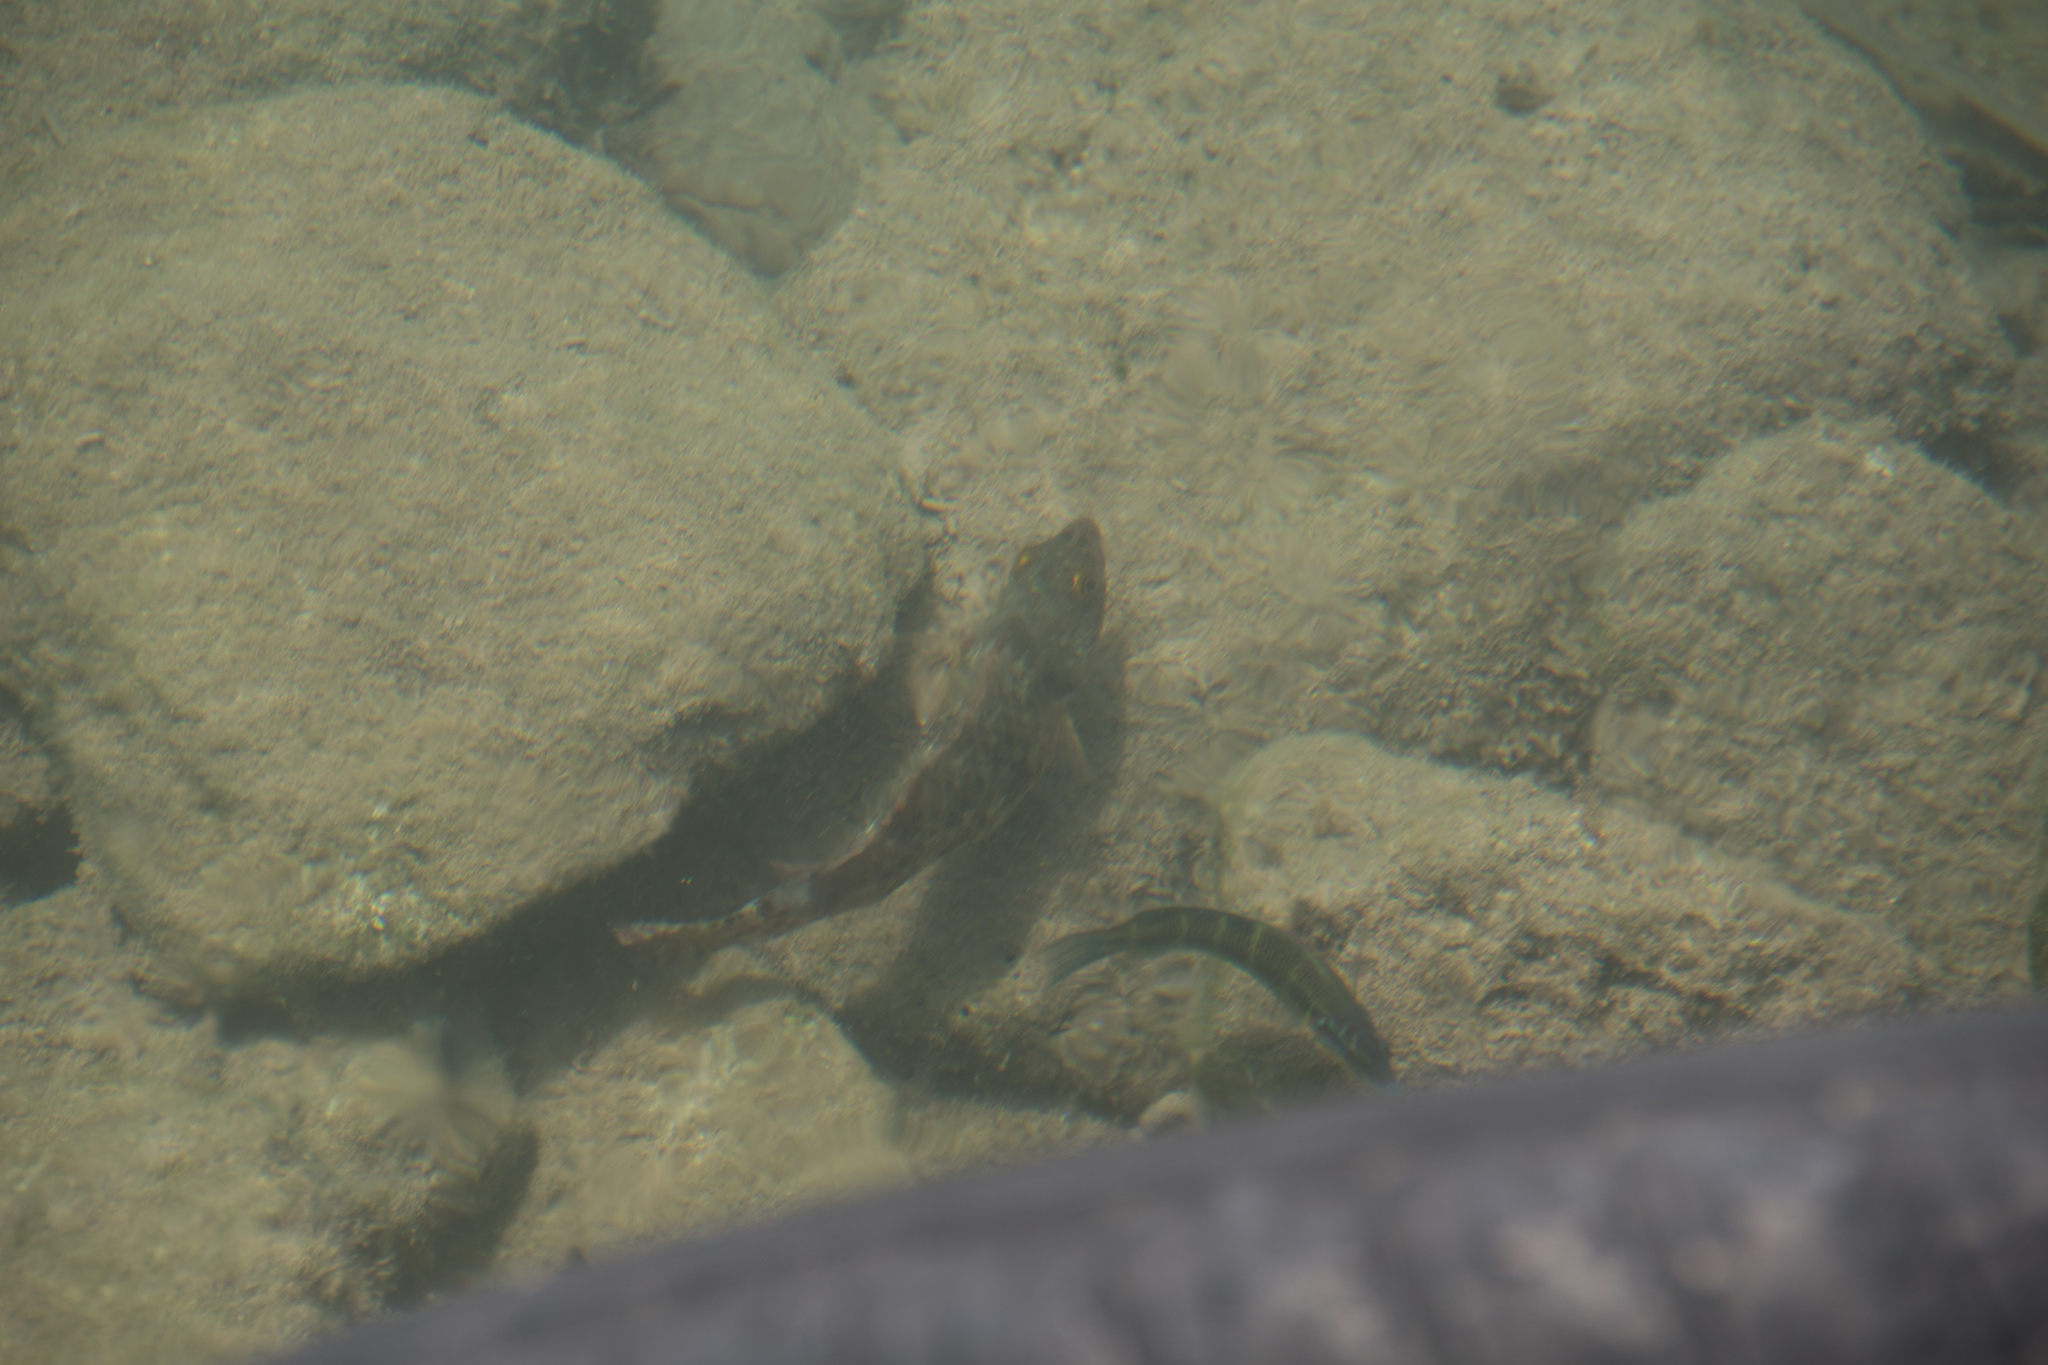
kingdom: Animalia
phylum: Chordata
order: Perciformes
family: Scaridae
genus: Sparisoma
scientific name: Sparisoma cretense
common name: Parrotfish
